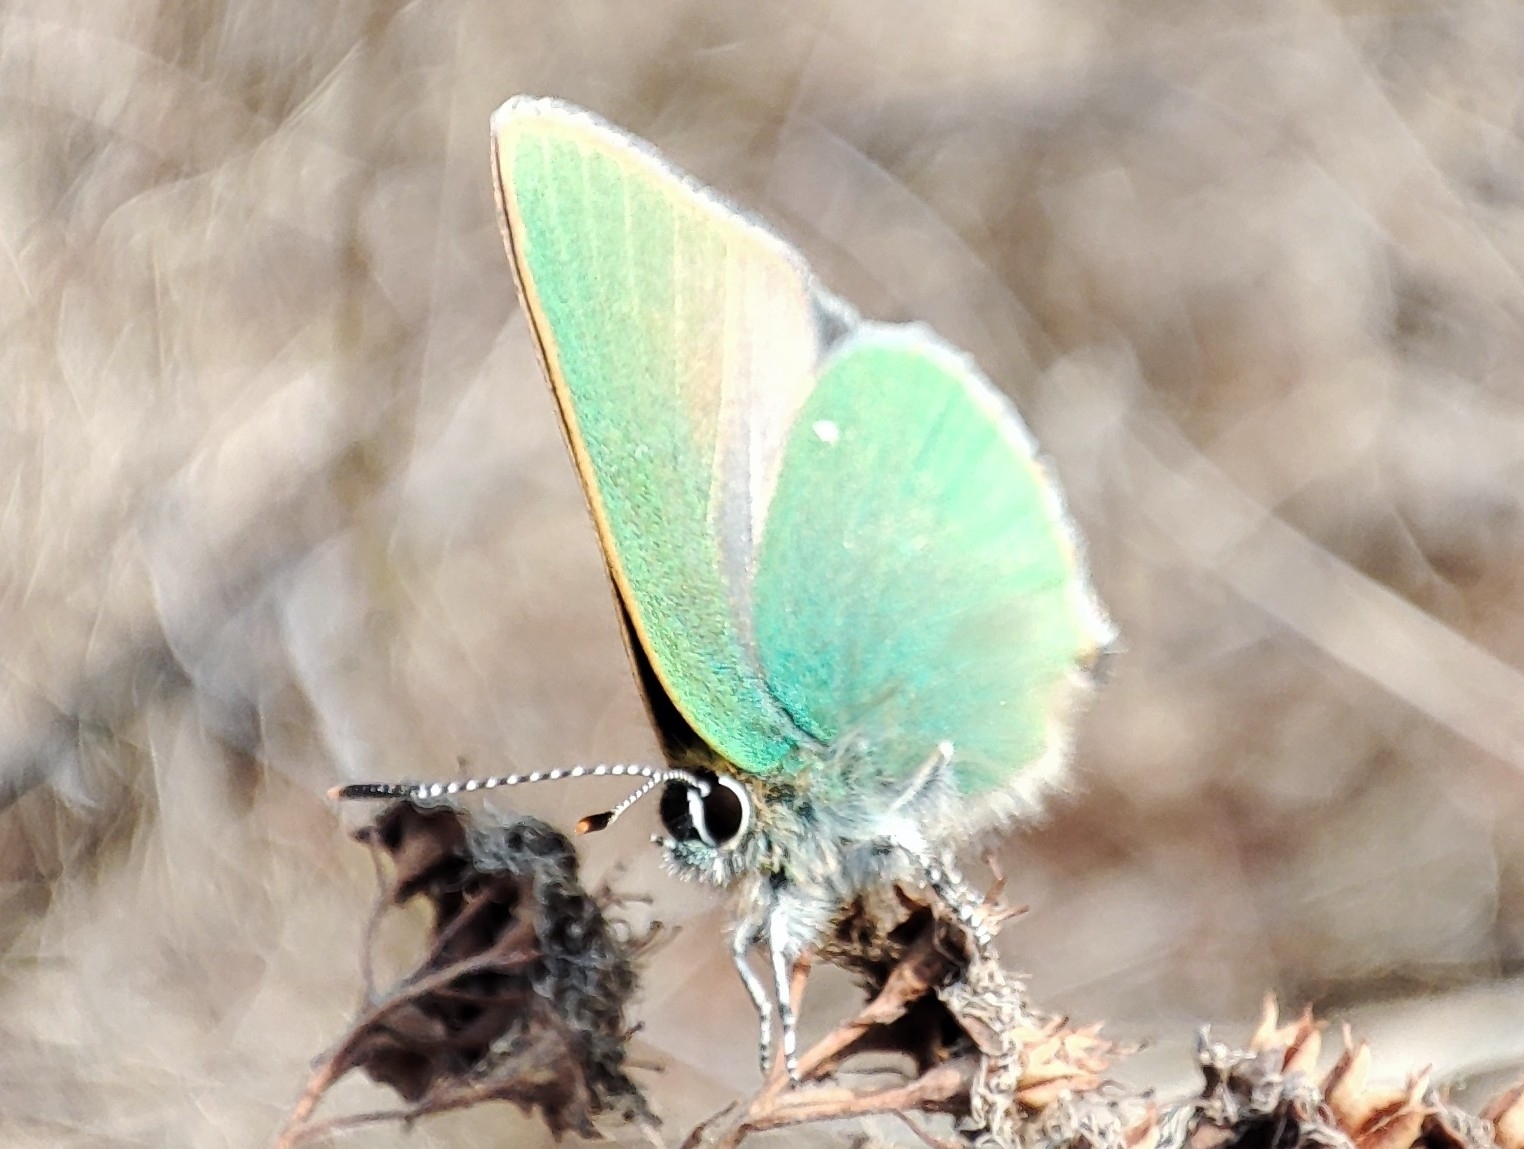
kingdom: Animalia
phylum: Arthropoda
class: Insecta
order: Lepidoptera
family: Lycaenidae
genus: Callophrys
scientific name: Callophrys rubi
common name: Green hairstreak
